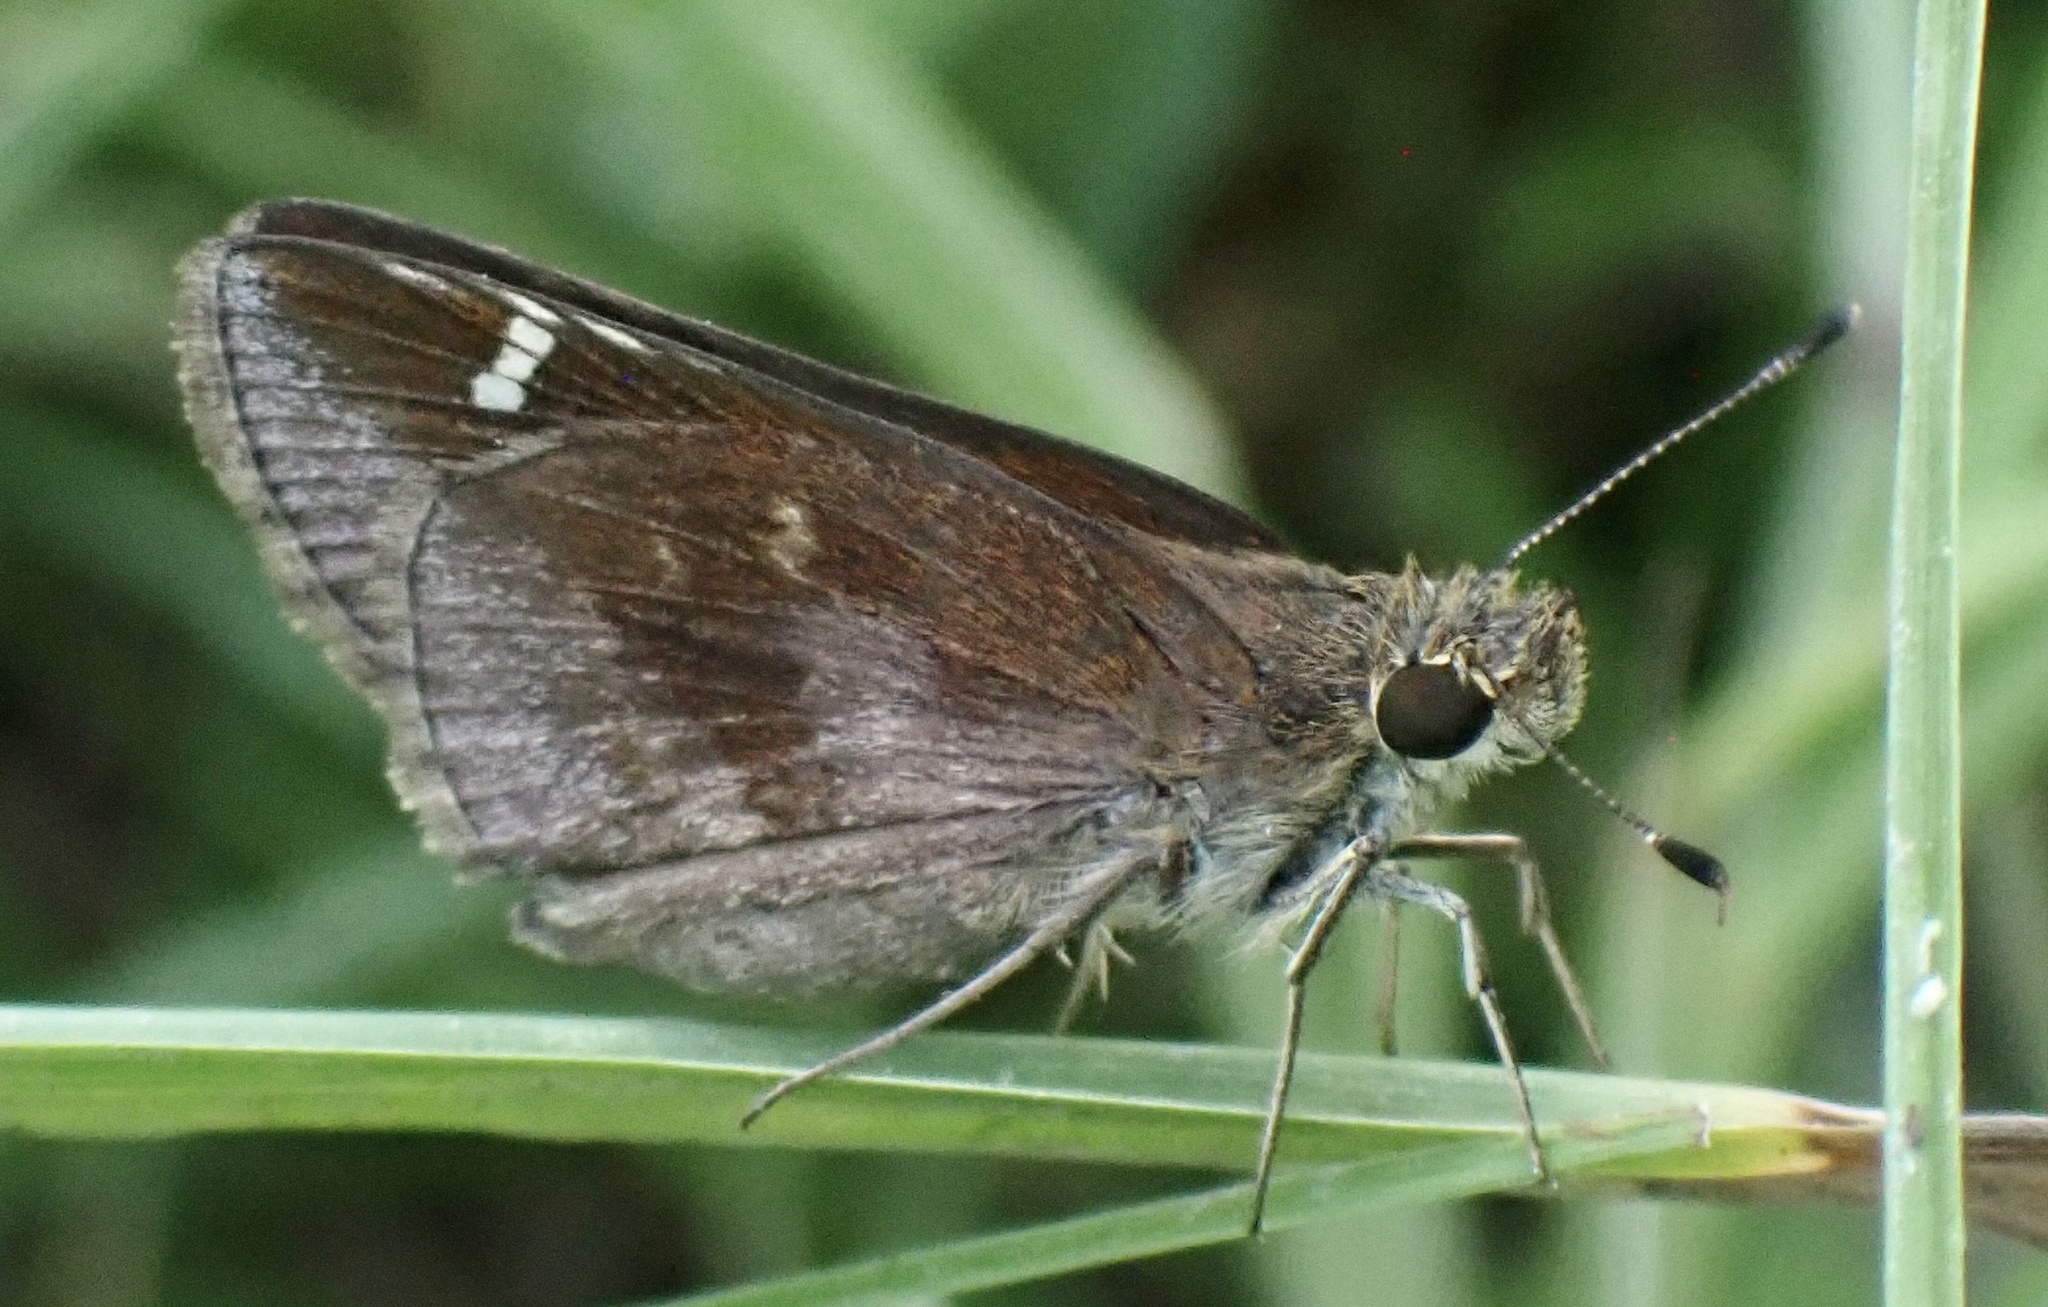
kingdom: Animalia
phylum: Arthropoda
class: Insecta
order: Lepidoptera
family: Hesperiidae
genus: Lerema
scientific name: Lerema accius
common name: Clouded skipper
